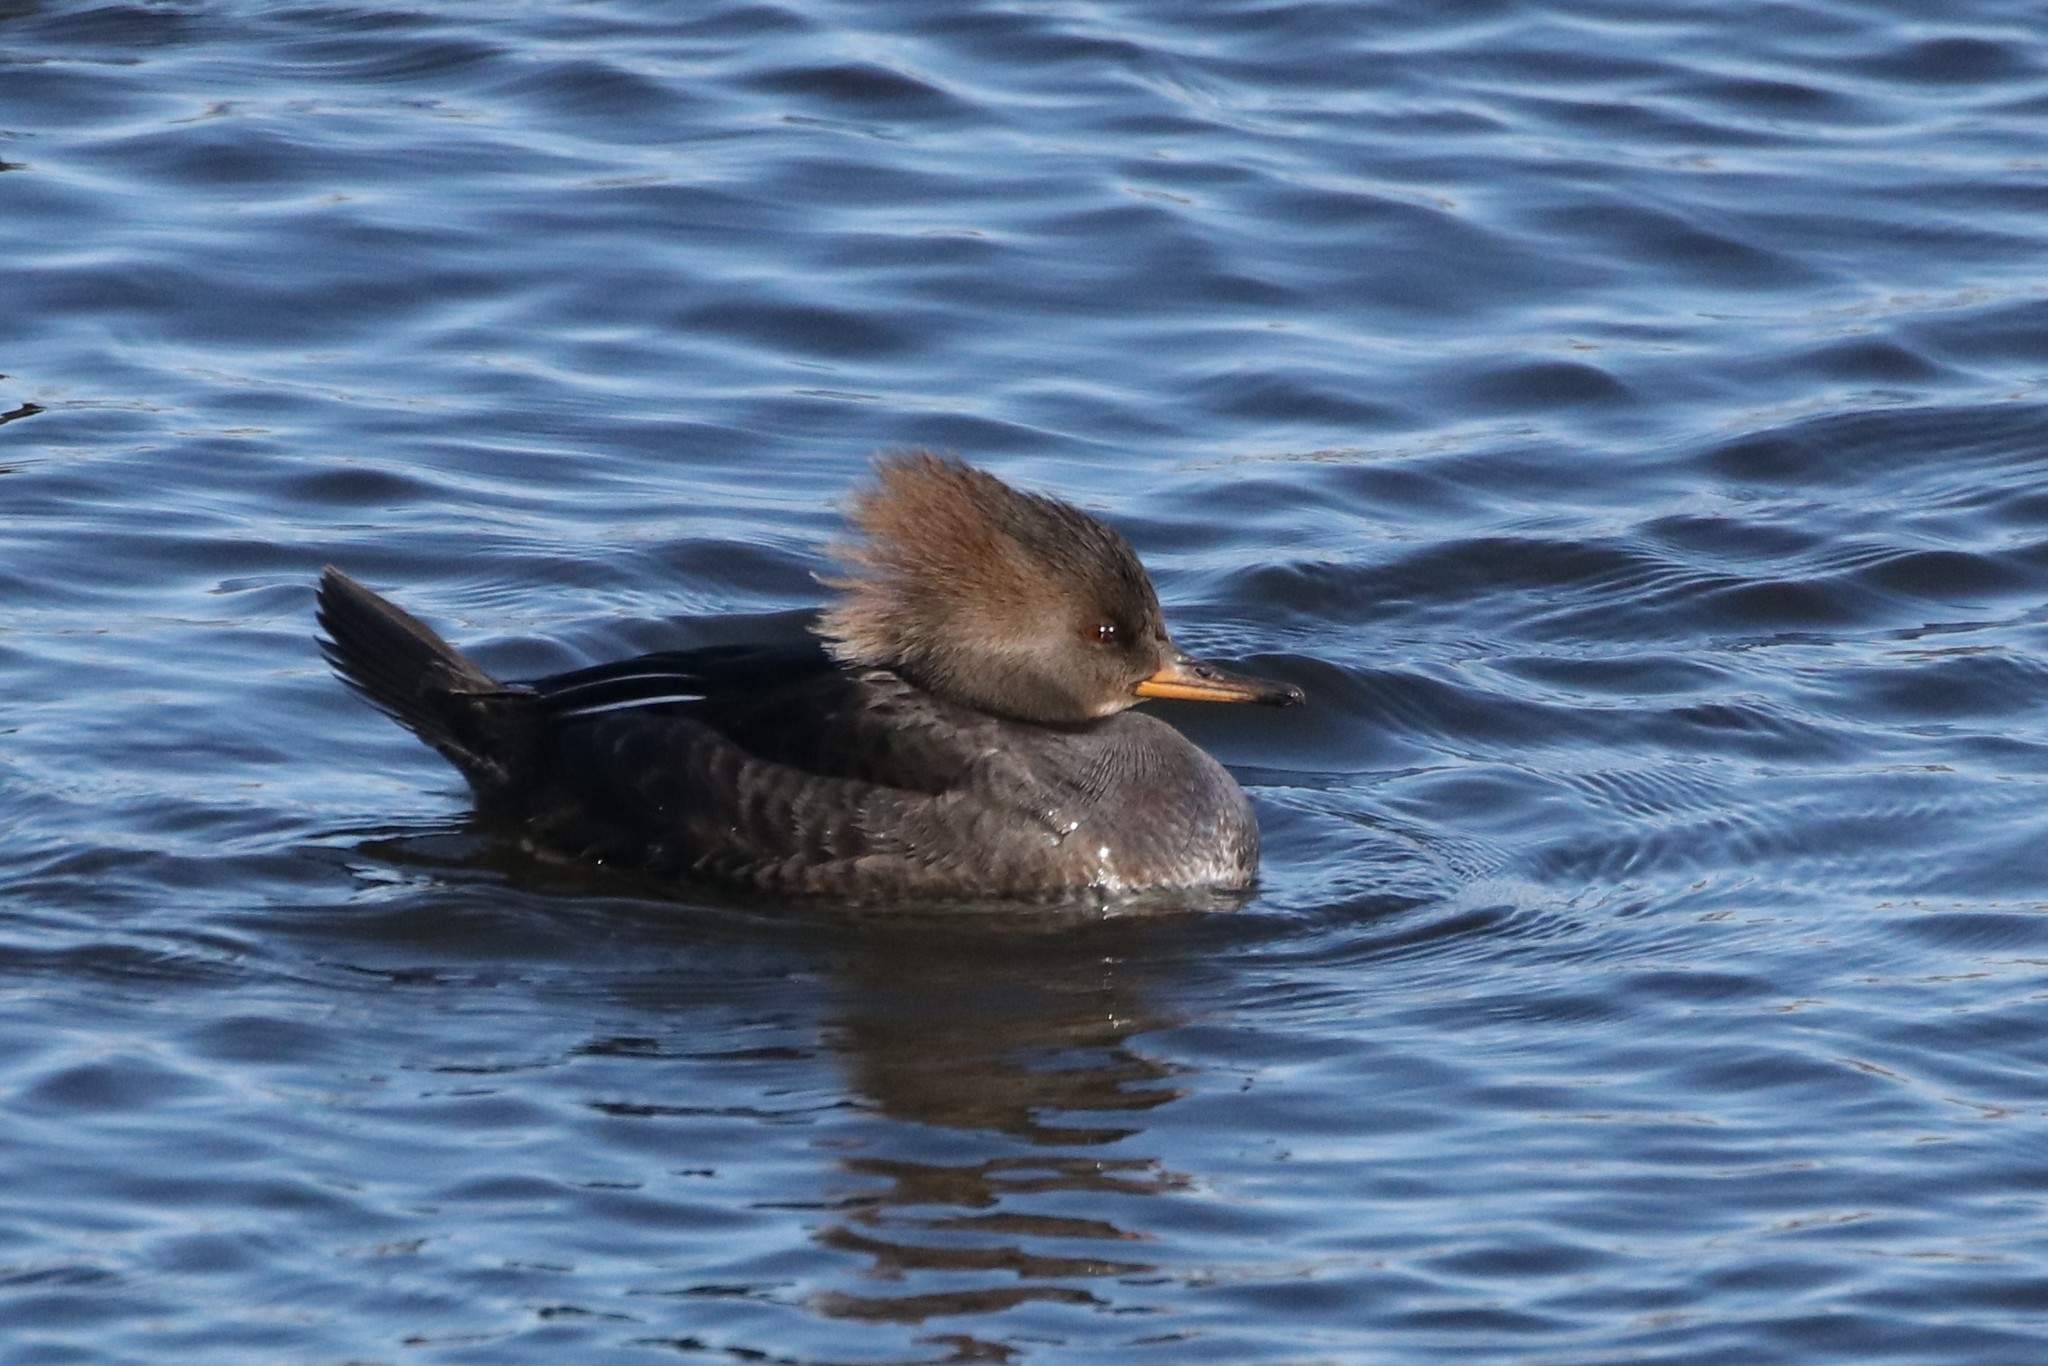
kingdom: Animalia
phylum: Chordata
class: Aves
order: Anseriformes
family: Anatidae
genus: Lophodytes
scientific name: Lophodytes cucullatus
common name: Hooded merganser
